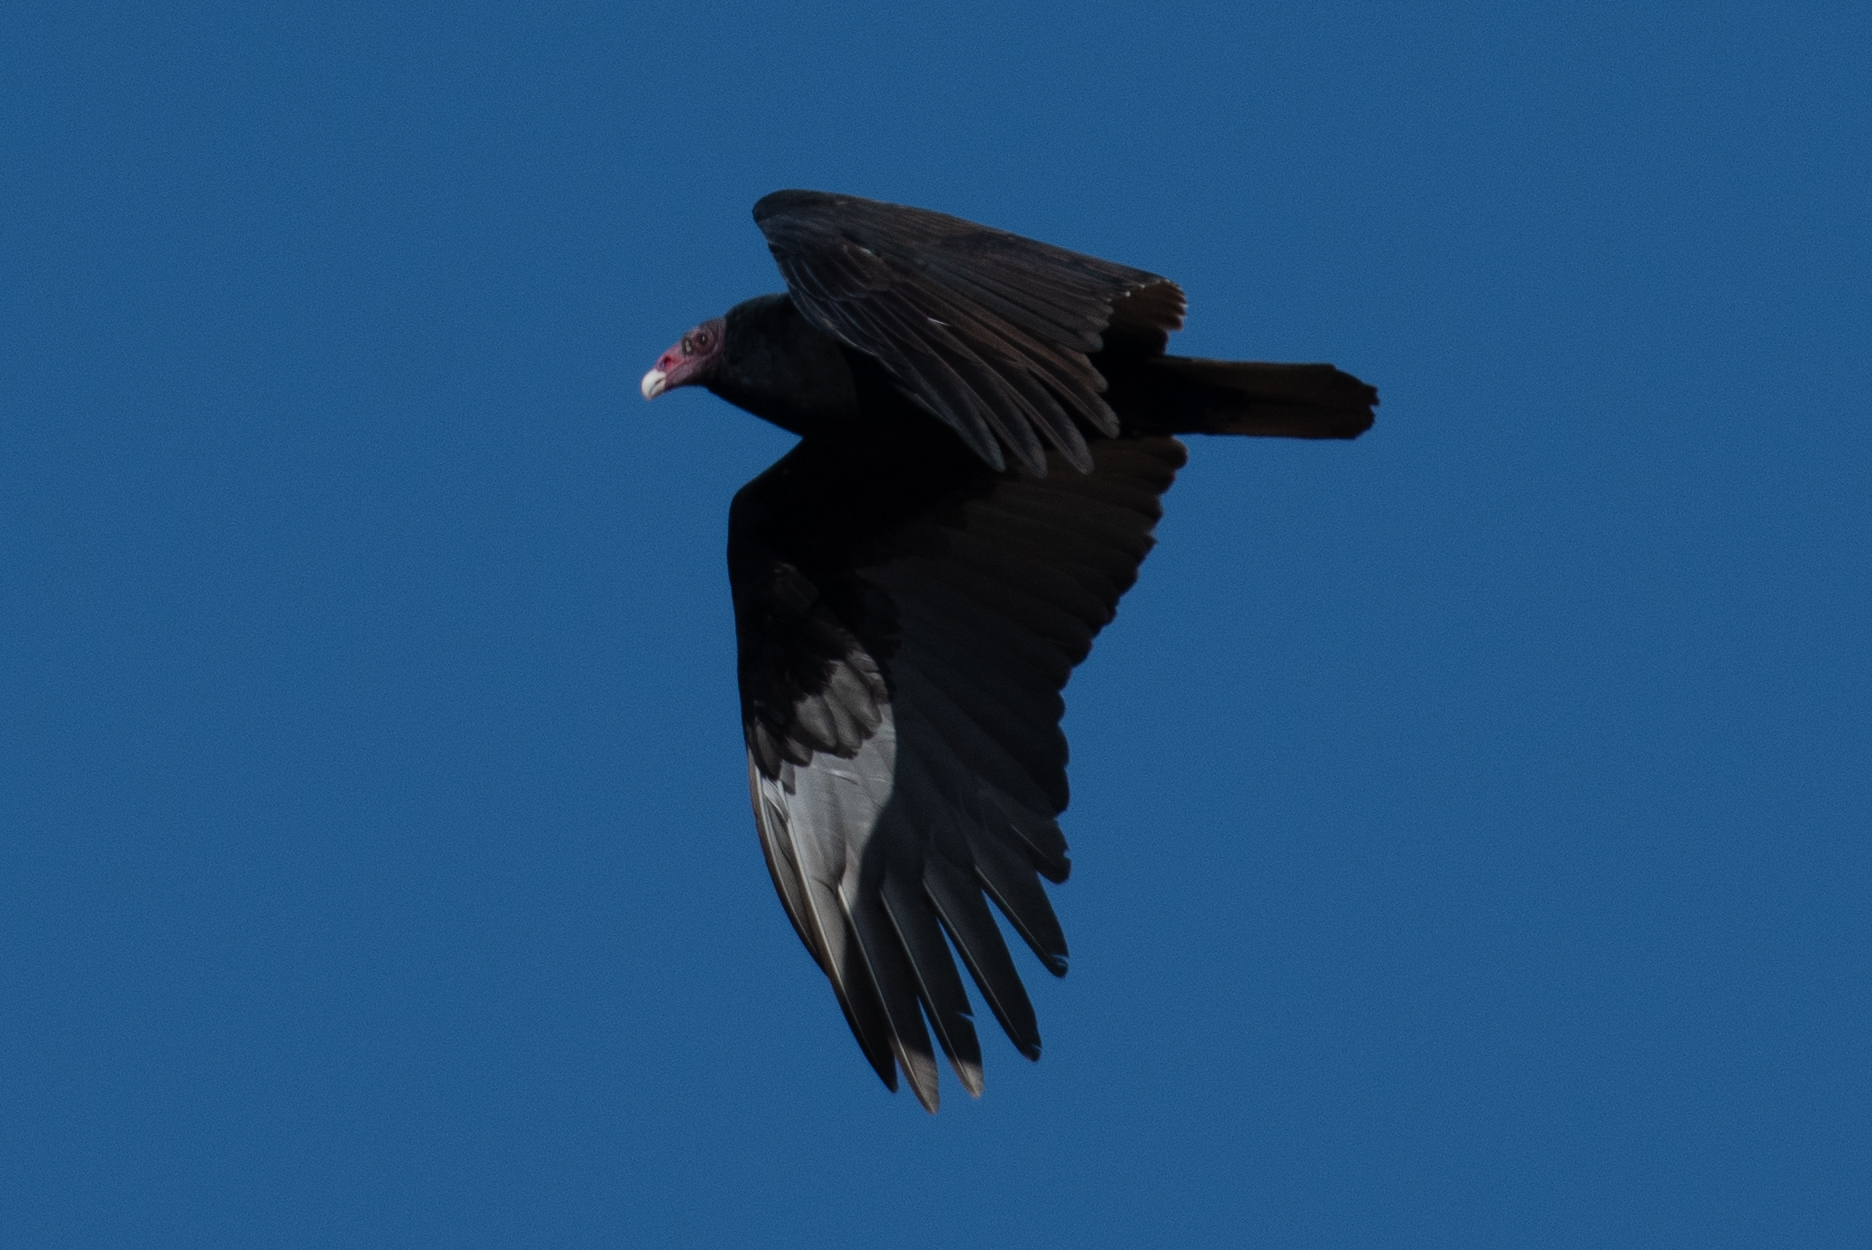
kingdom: Animalia
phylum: Chordata
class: Aves
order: Accipitriformes
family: Cathartidae
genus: Cathartes
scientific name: Cathartes aura
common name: Turkey vulture
